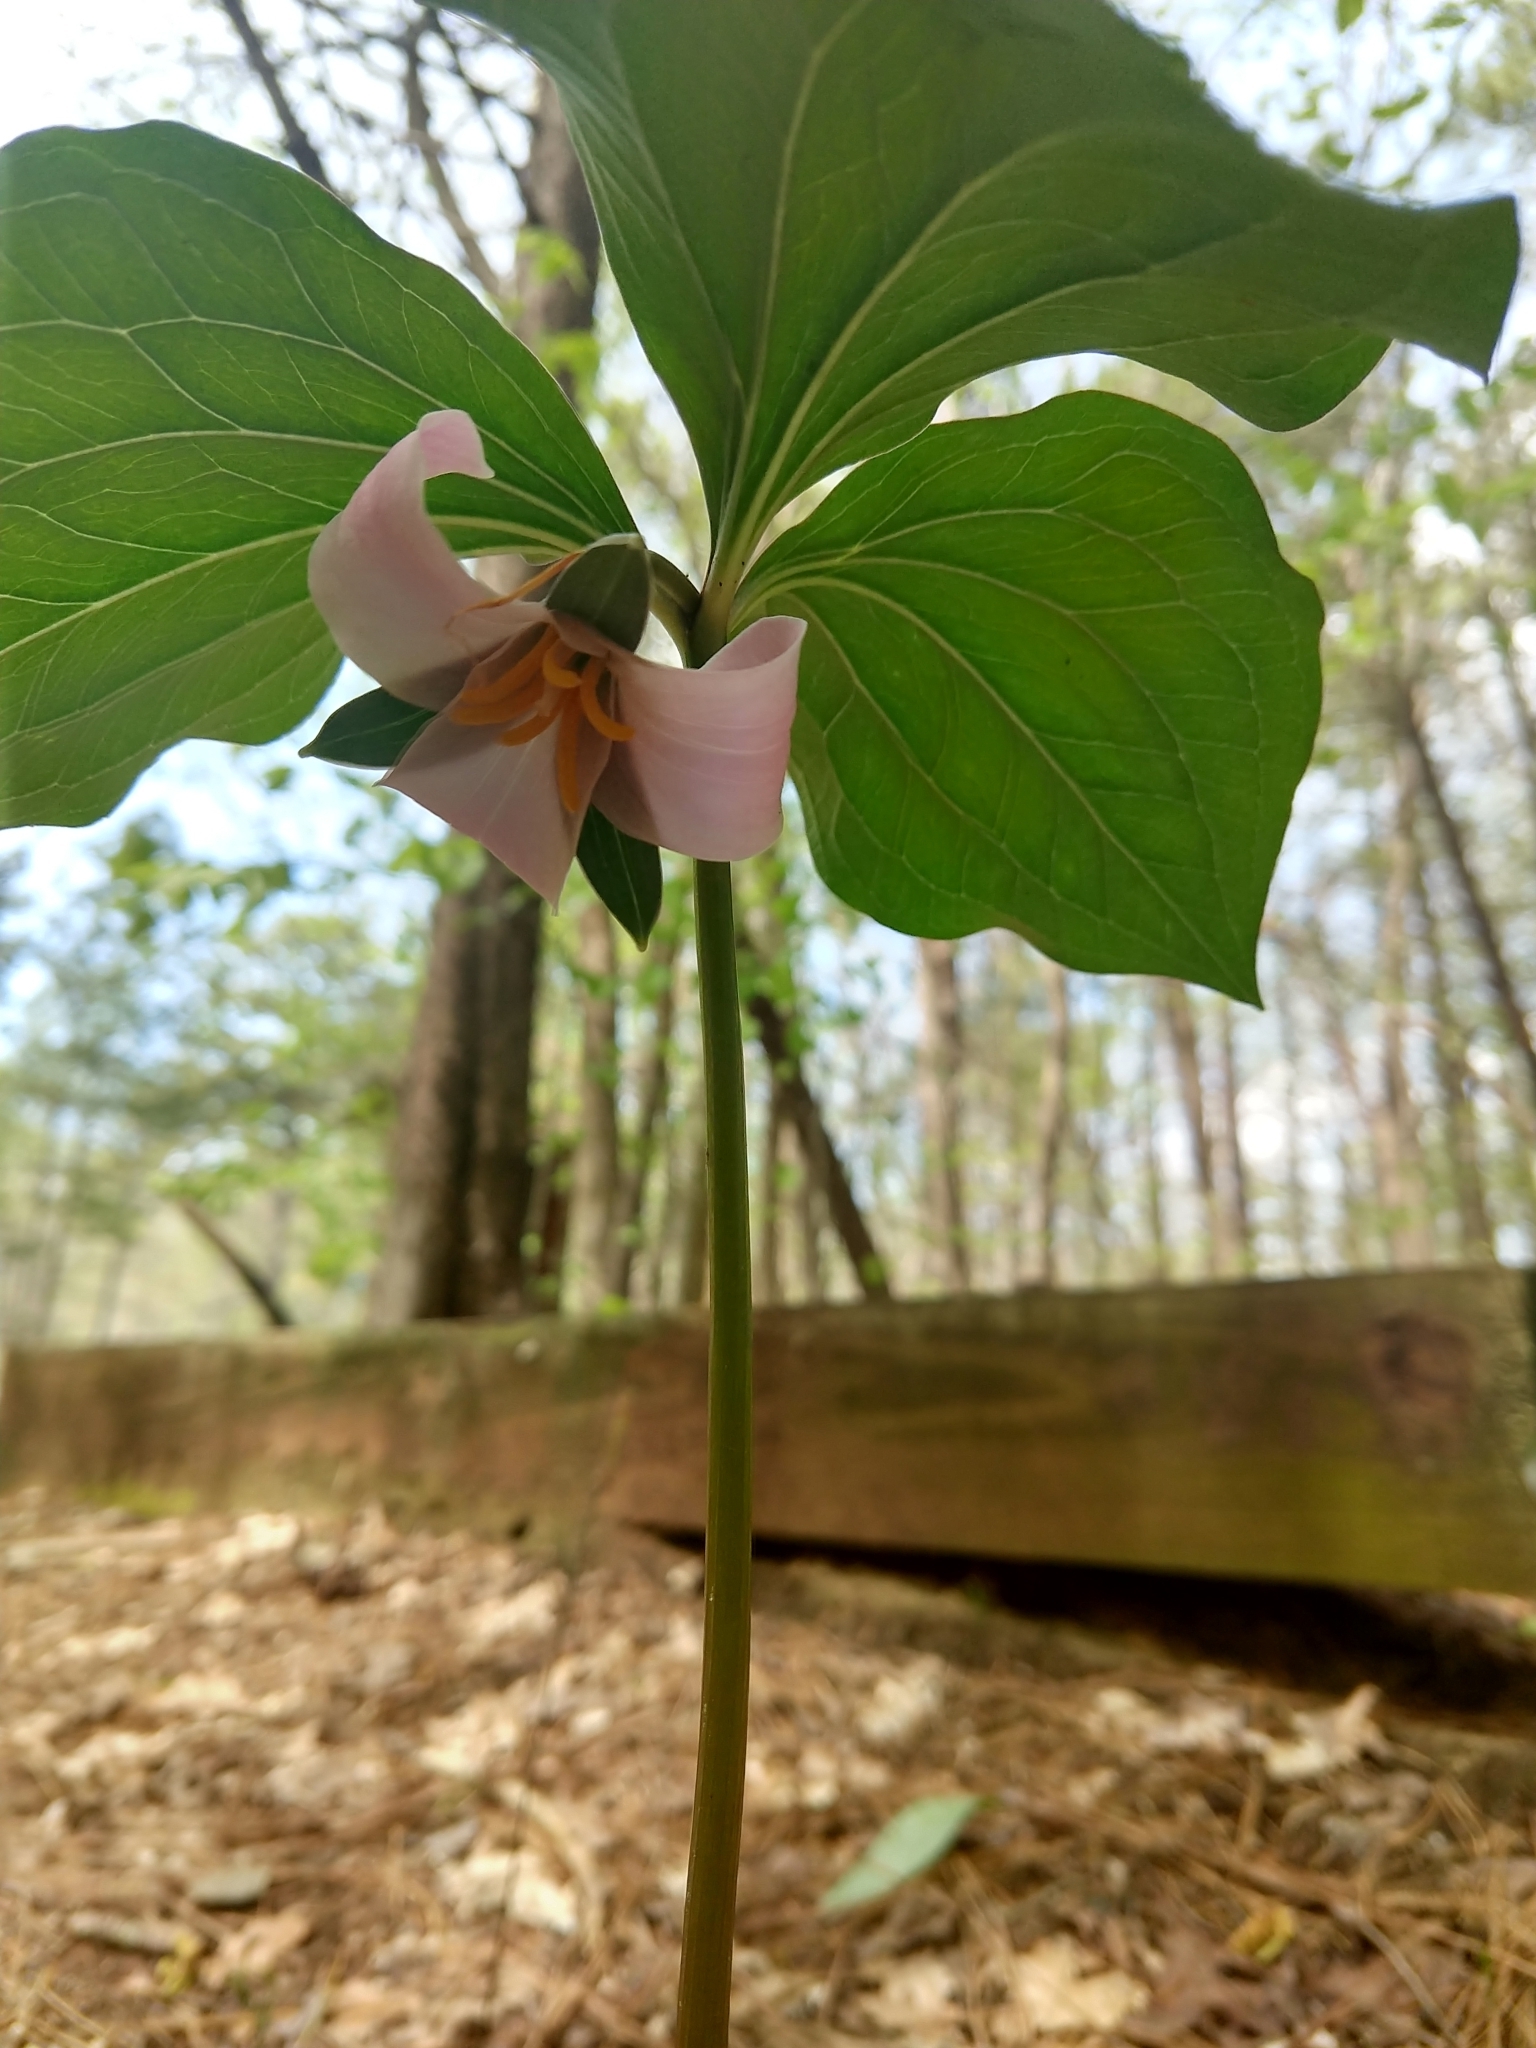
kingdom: Plantae
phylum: Tracheophyta
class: Liliopsida
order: Liliales
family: Melanthiaceae
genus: Trillium
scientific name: Trillium catesbaei
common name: Bashful trillium
